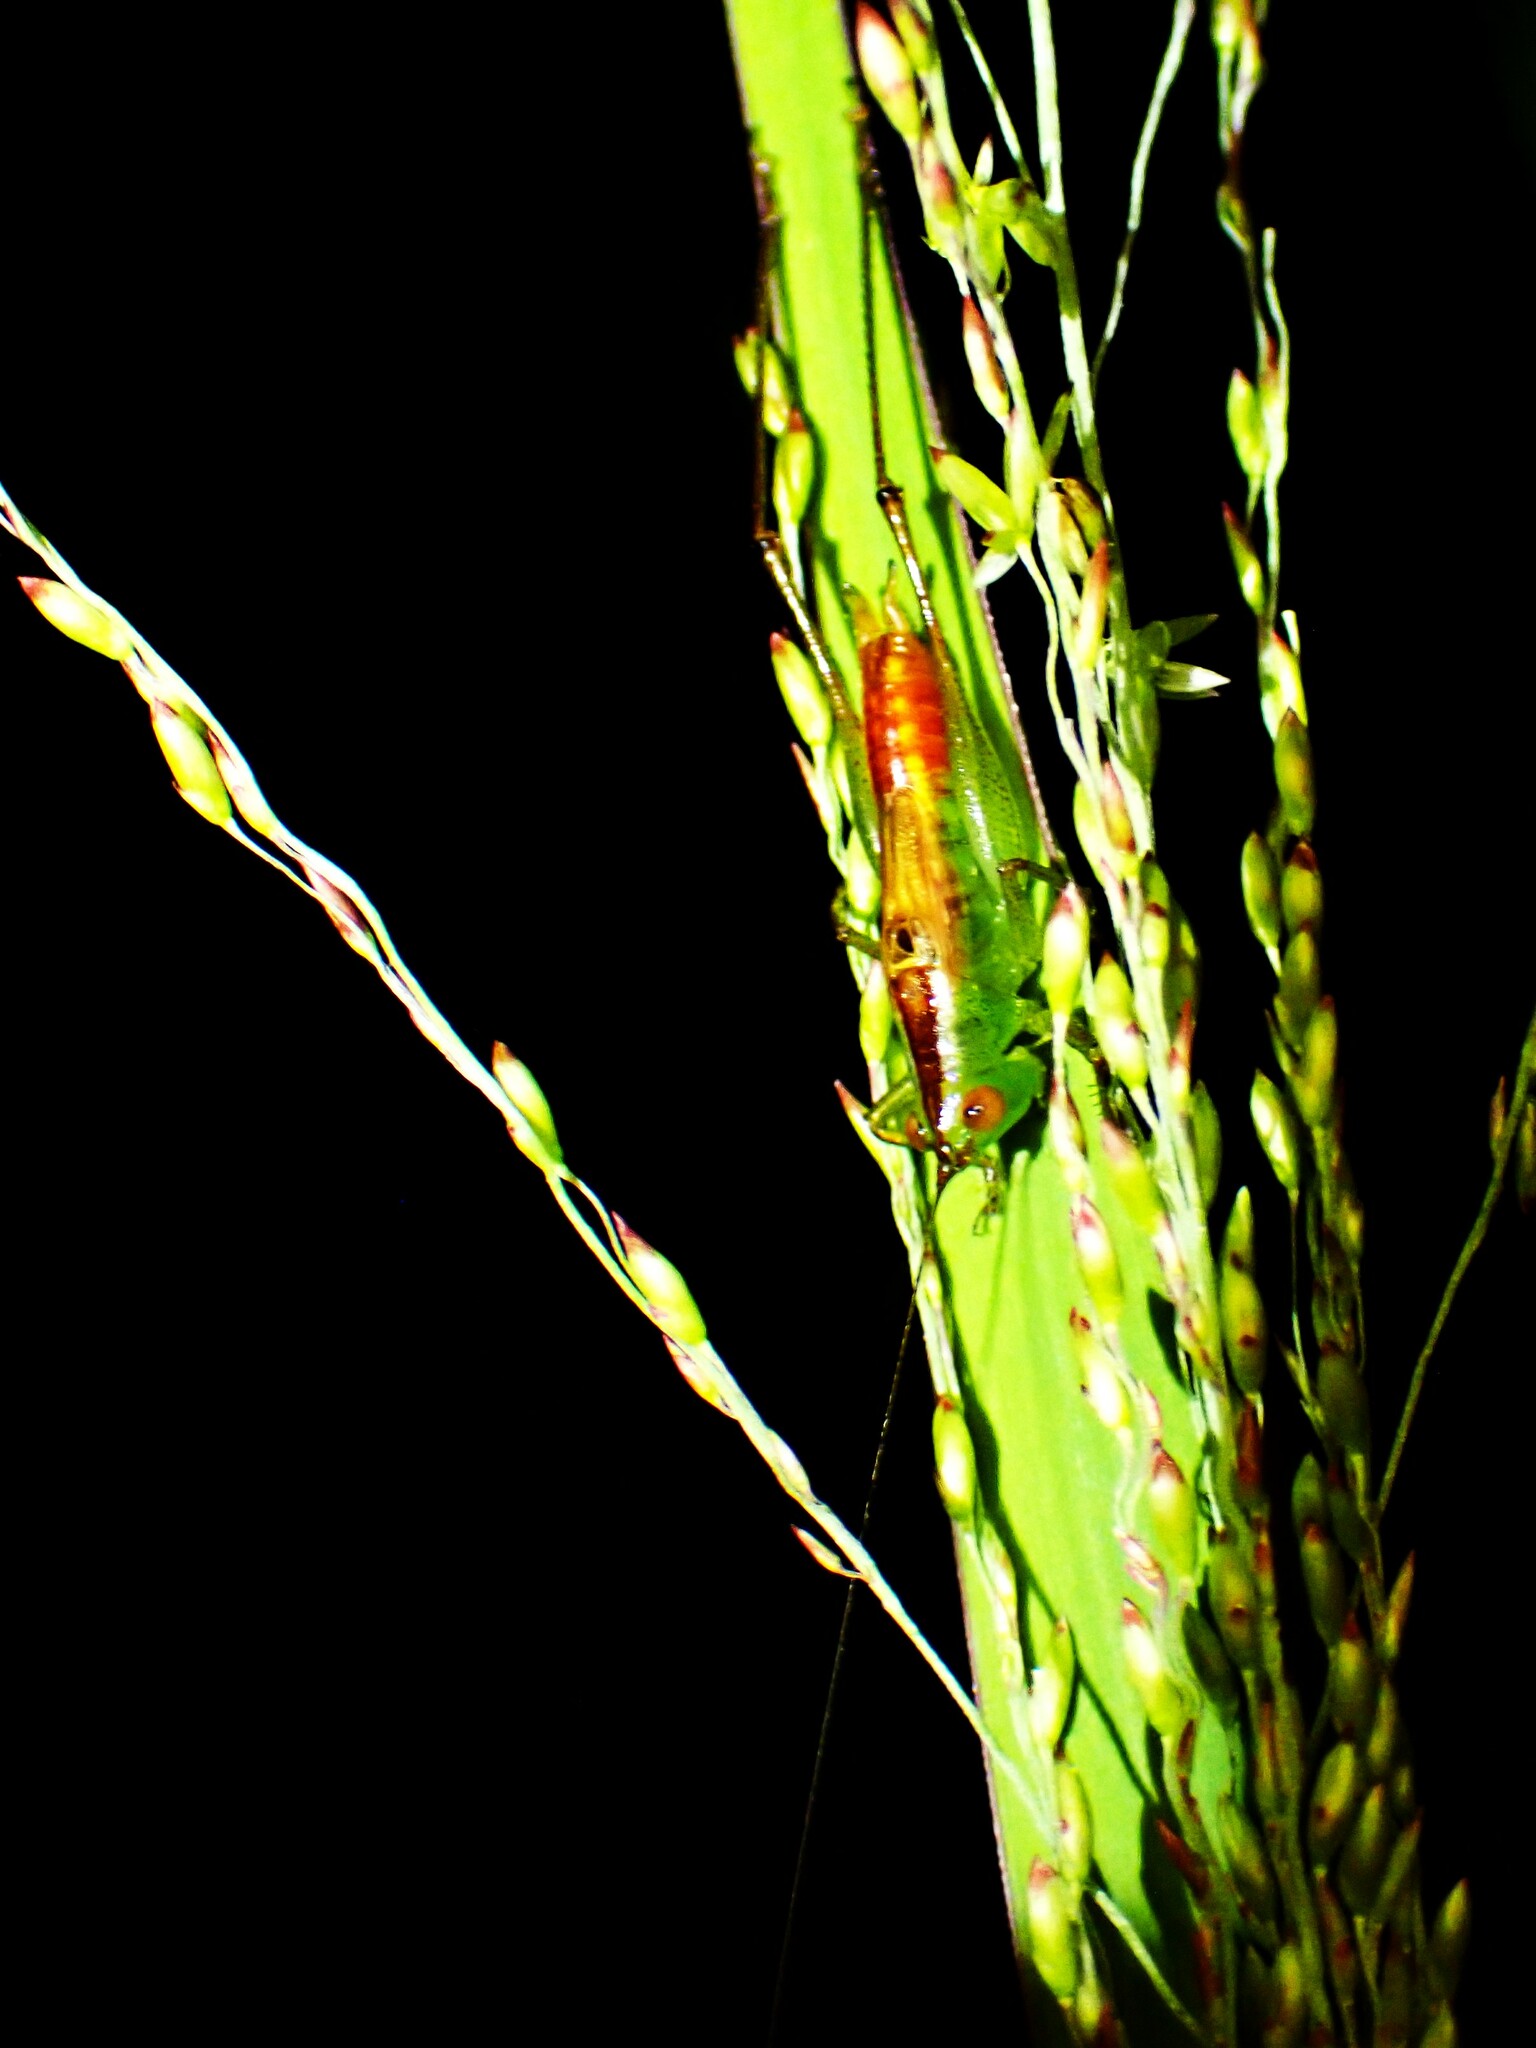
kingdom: Animalia
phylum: Arthropoda
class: Insecta
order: Orthoptera
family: Tettigoniidae
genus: Conocephalus
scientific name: Conocephalus saltator
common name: Katydid
